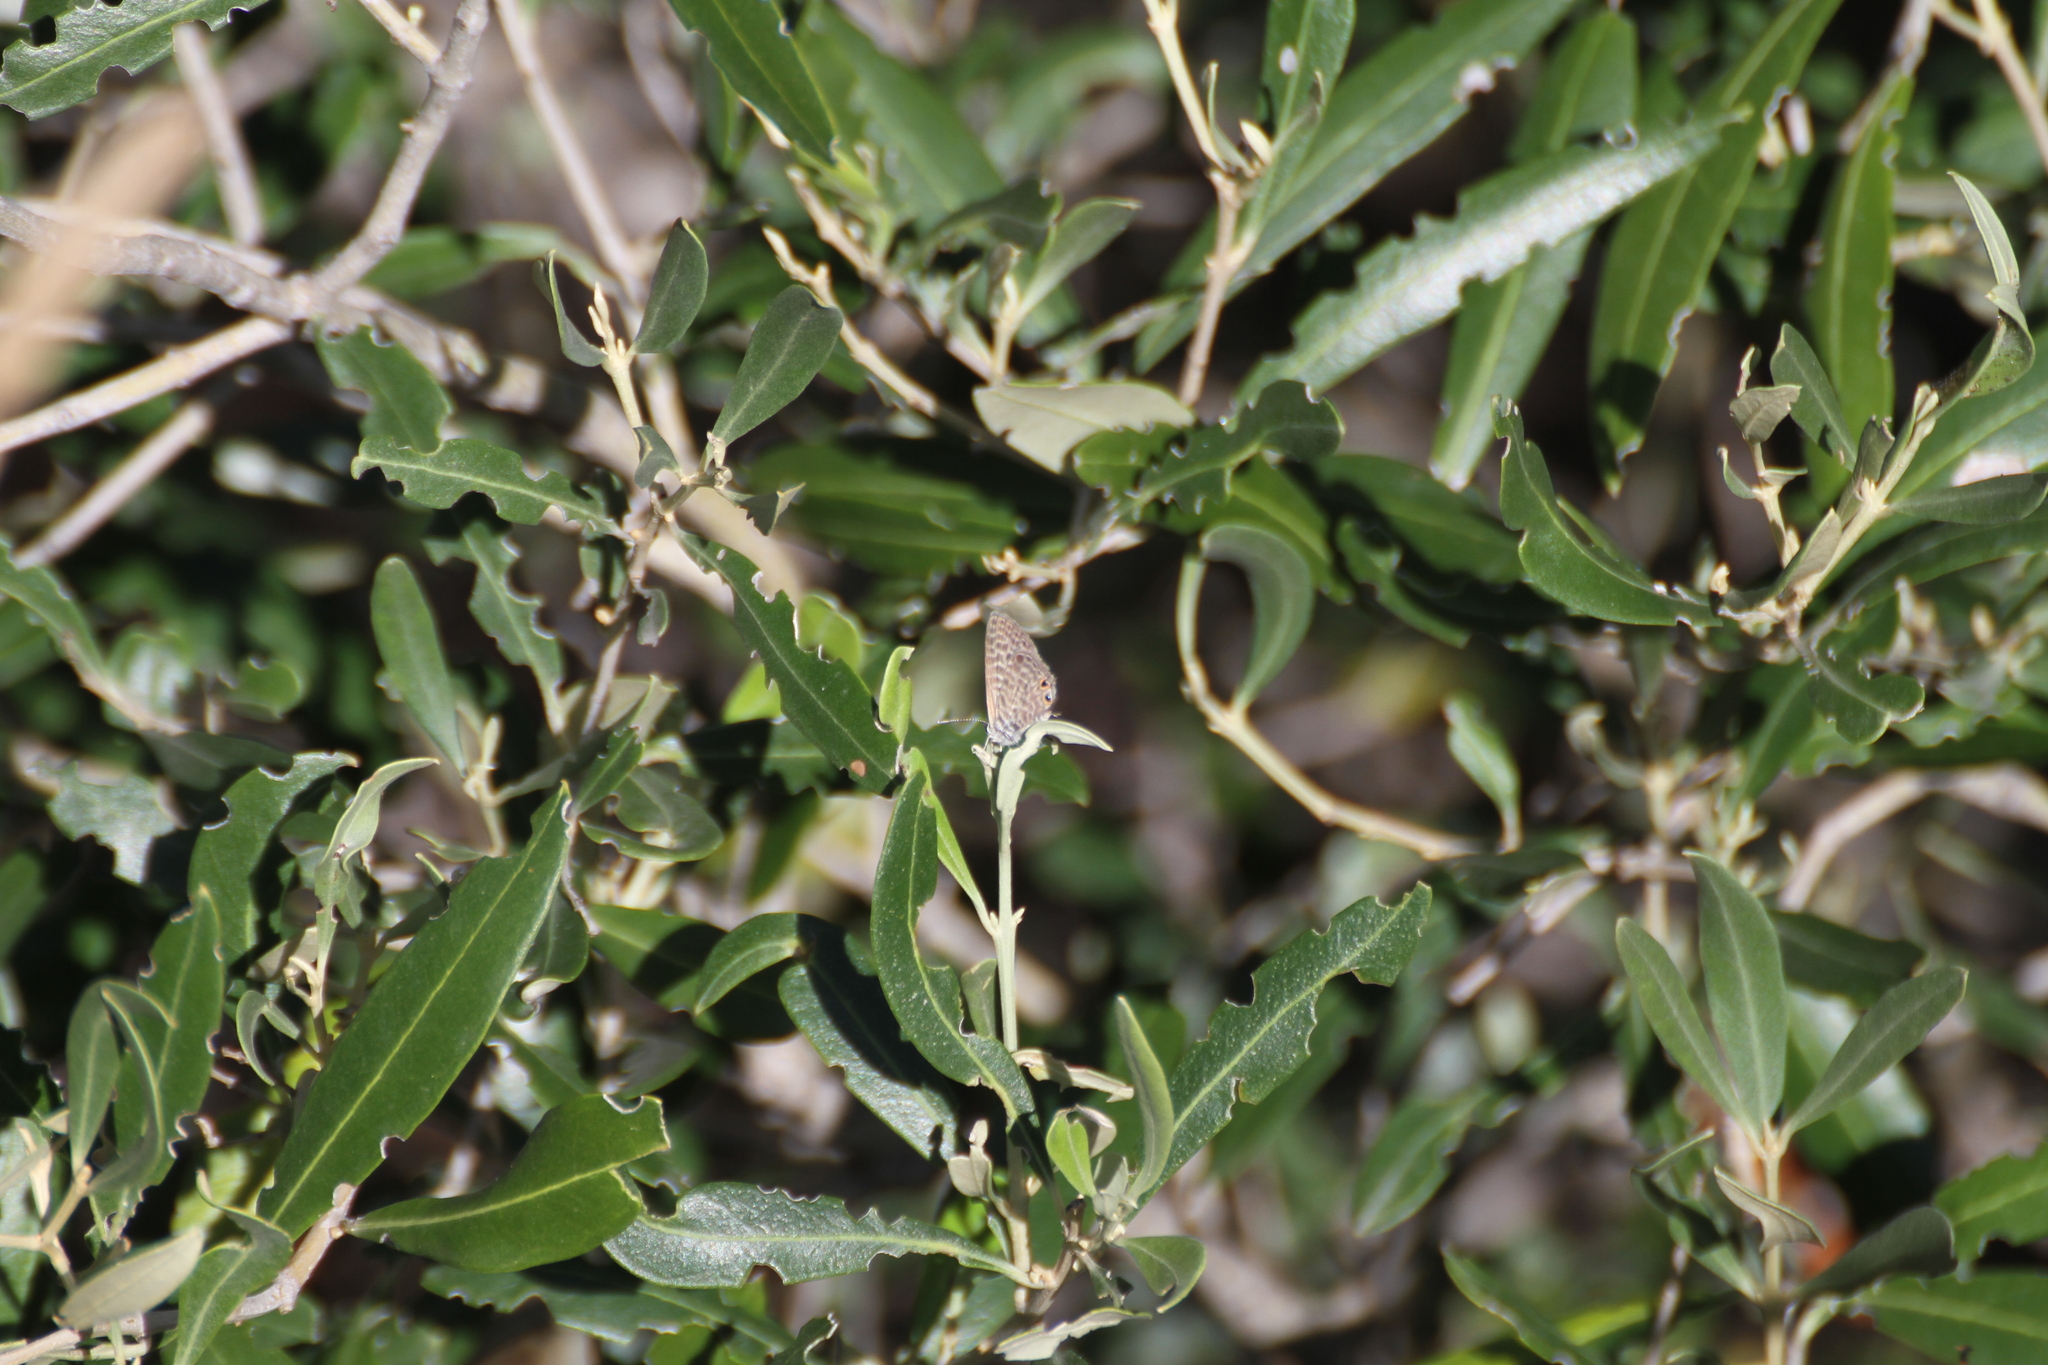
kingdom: Animalia
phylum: Arthropoda
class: Insecta
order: Lepidoptera
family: Lycaenidae
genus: Leptotes
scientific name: Leptotes pirithous
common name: Lang's short-tailed blue
